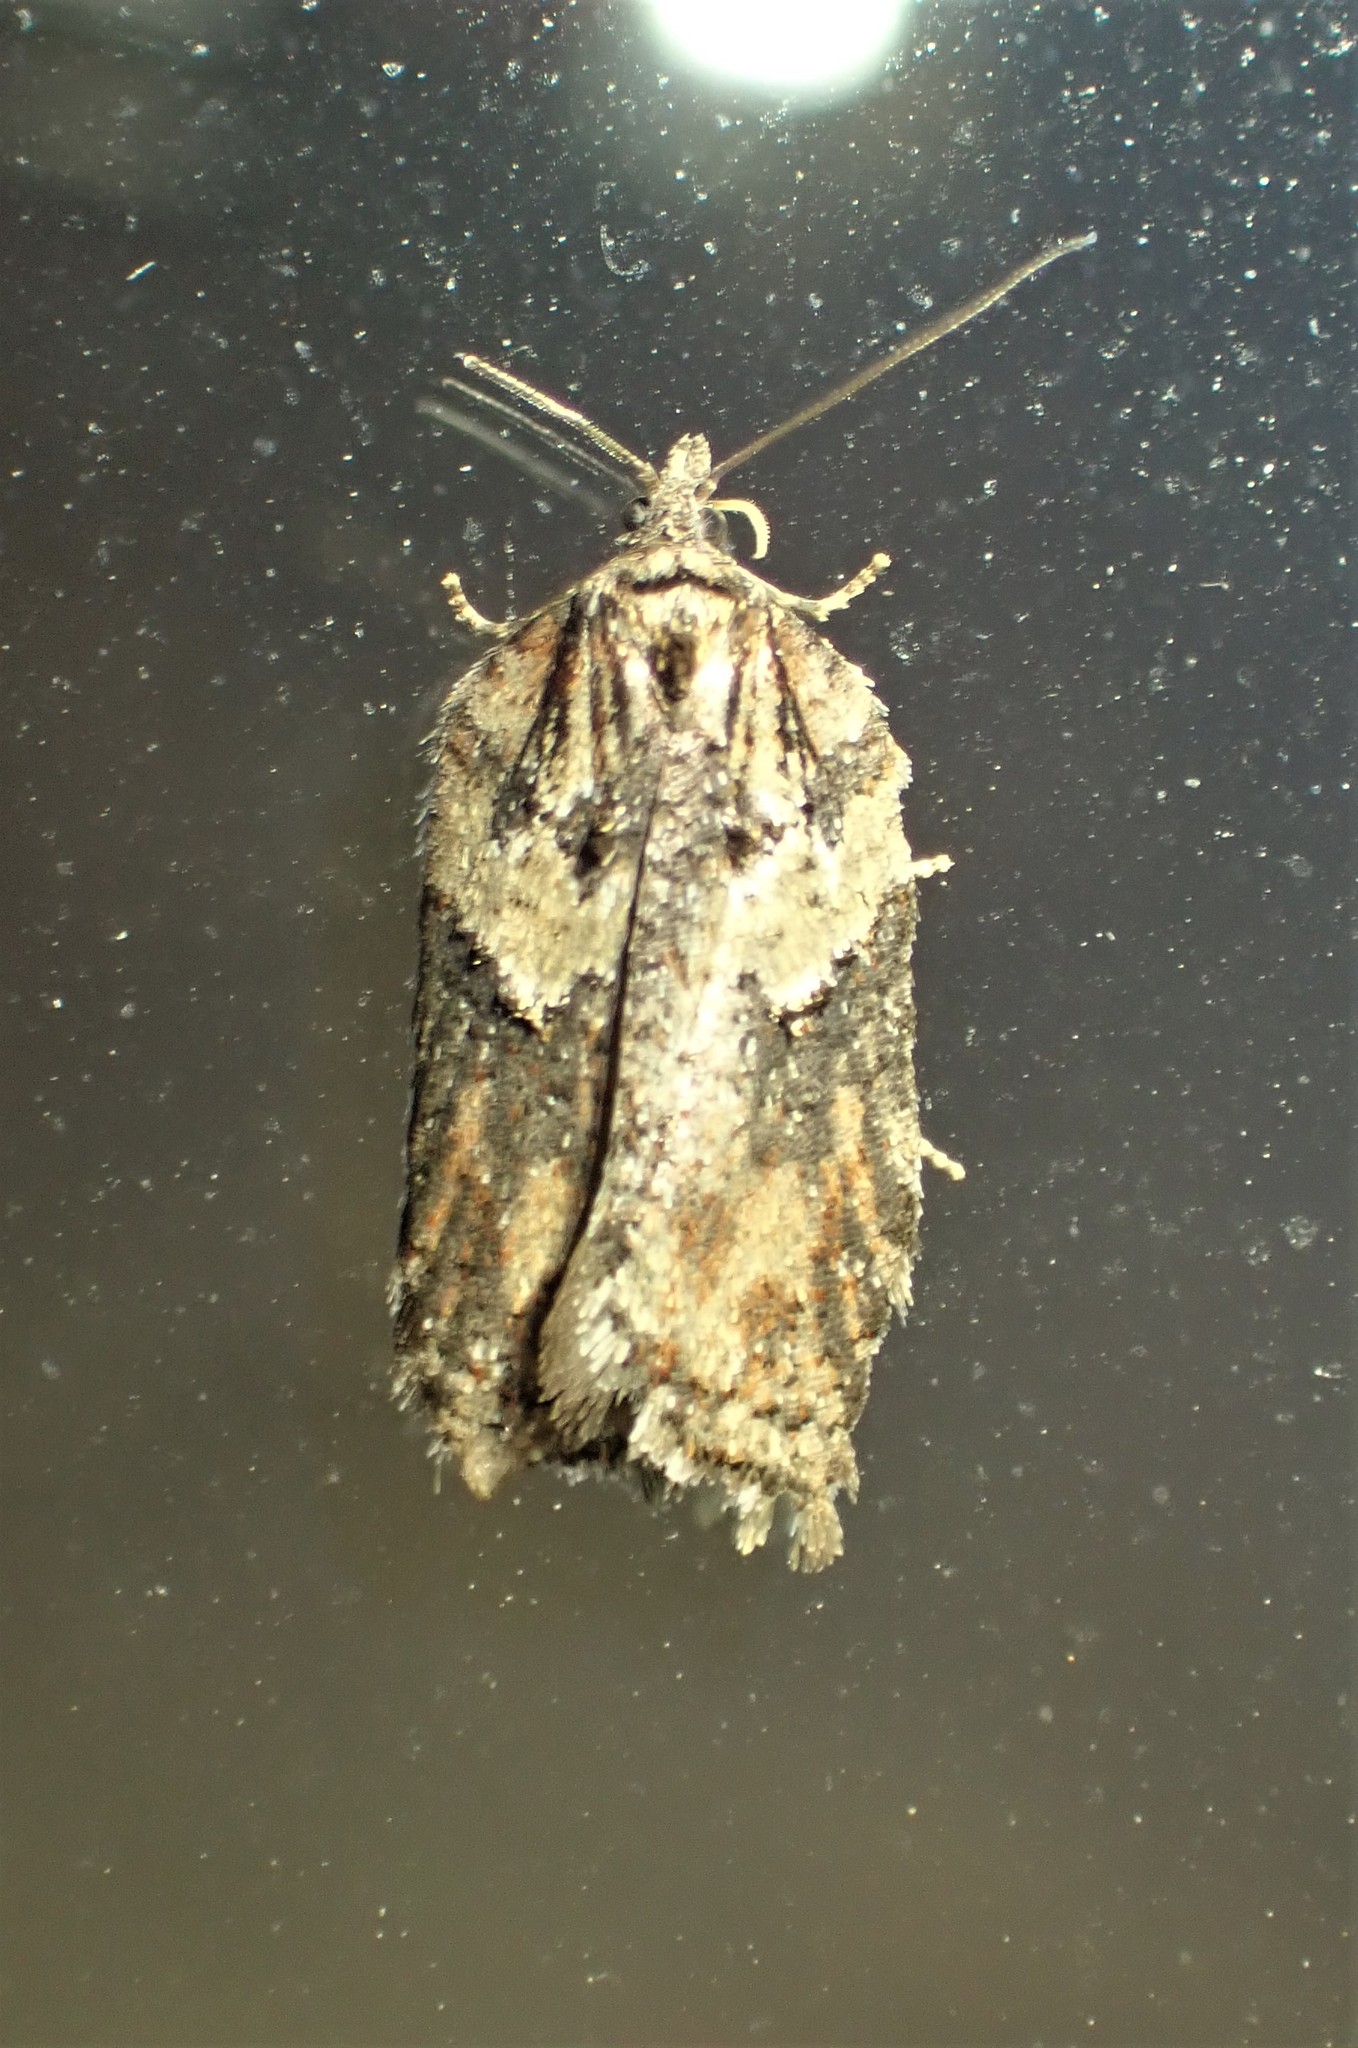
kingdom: Animalia
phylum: Arthropoda
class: Insecta
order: Lepidoptera
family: Tortricidae
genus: Acleris
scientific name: Acleris hastiana
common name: Sallow button
